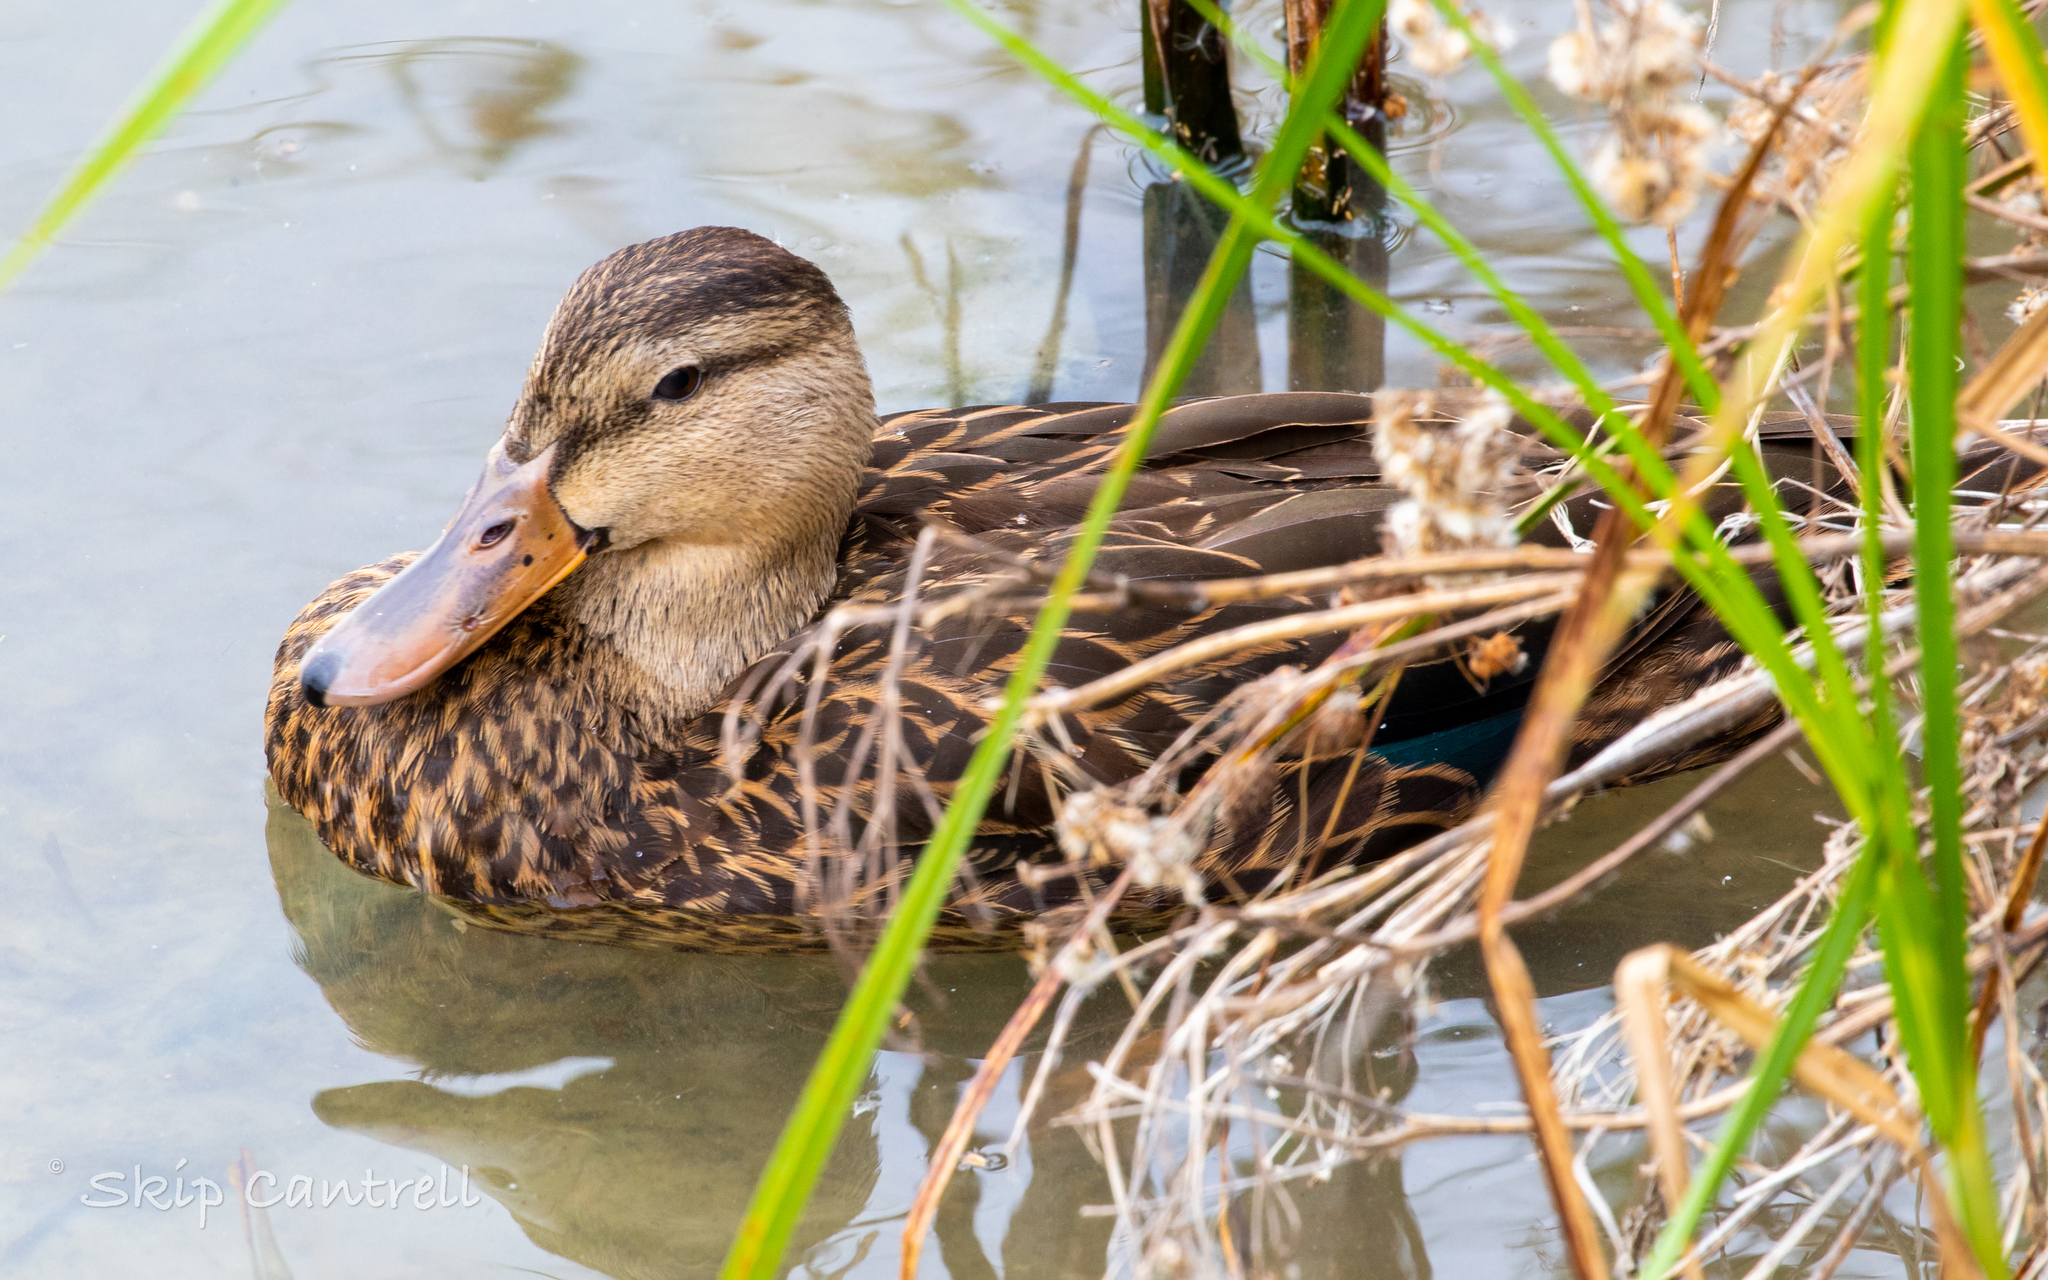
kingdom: Animalia
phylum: Chordata
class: Aves
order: Anseriformes
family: Anatidae
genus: Anas
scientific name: Anas fulvigula
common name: Mottled duck
